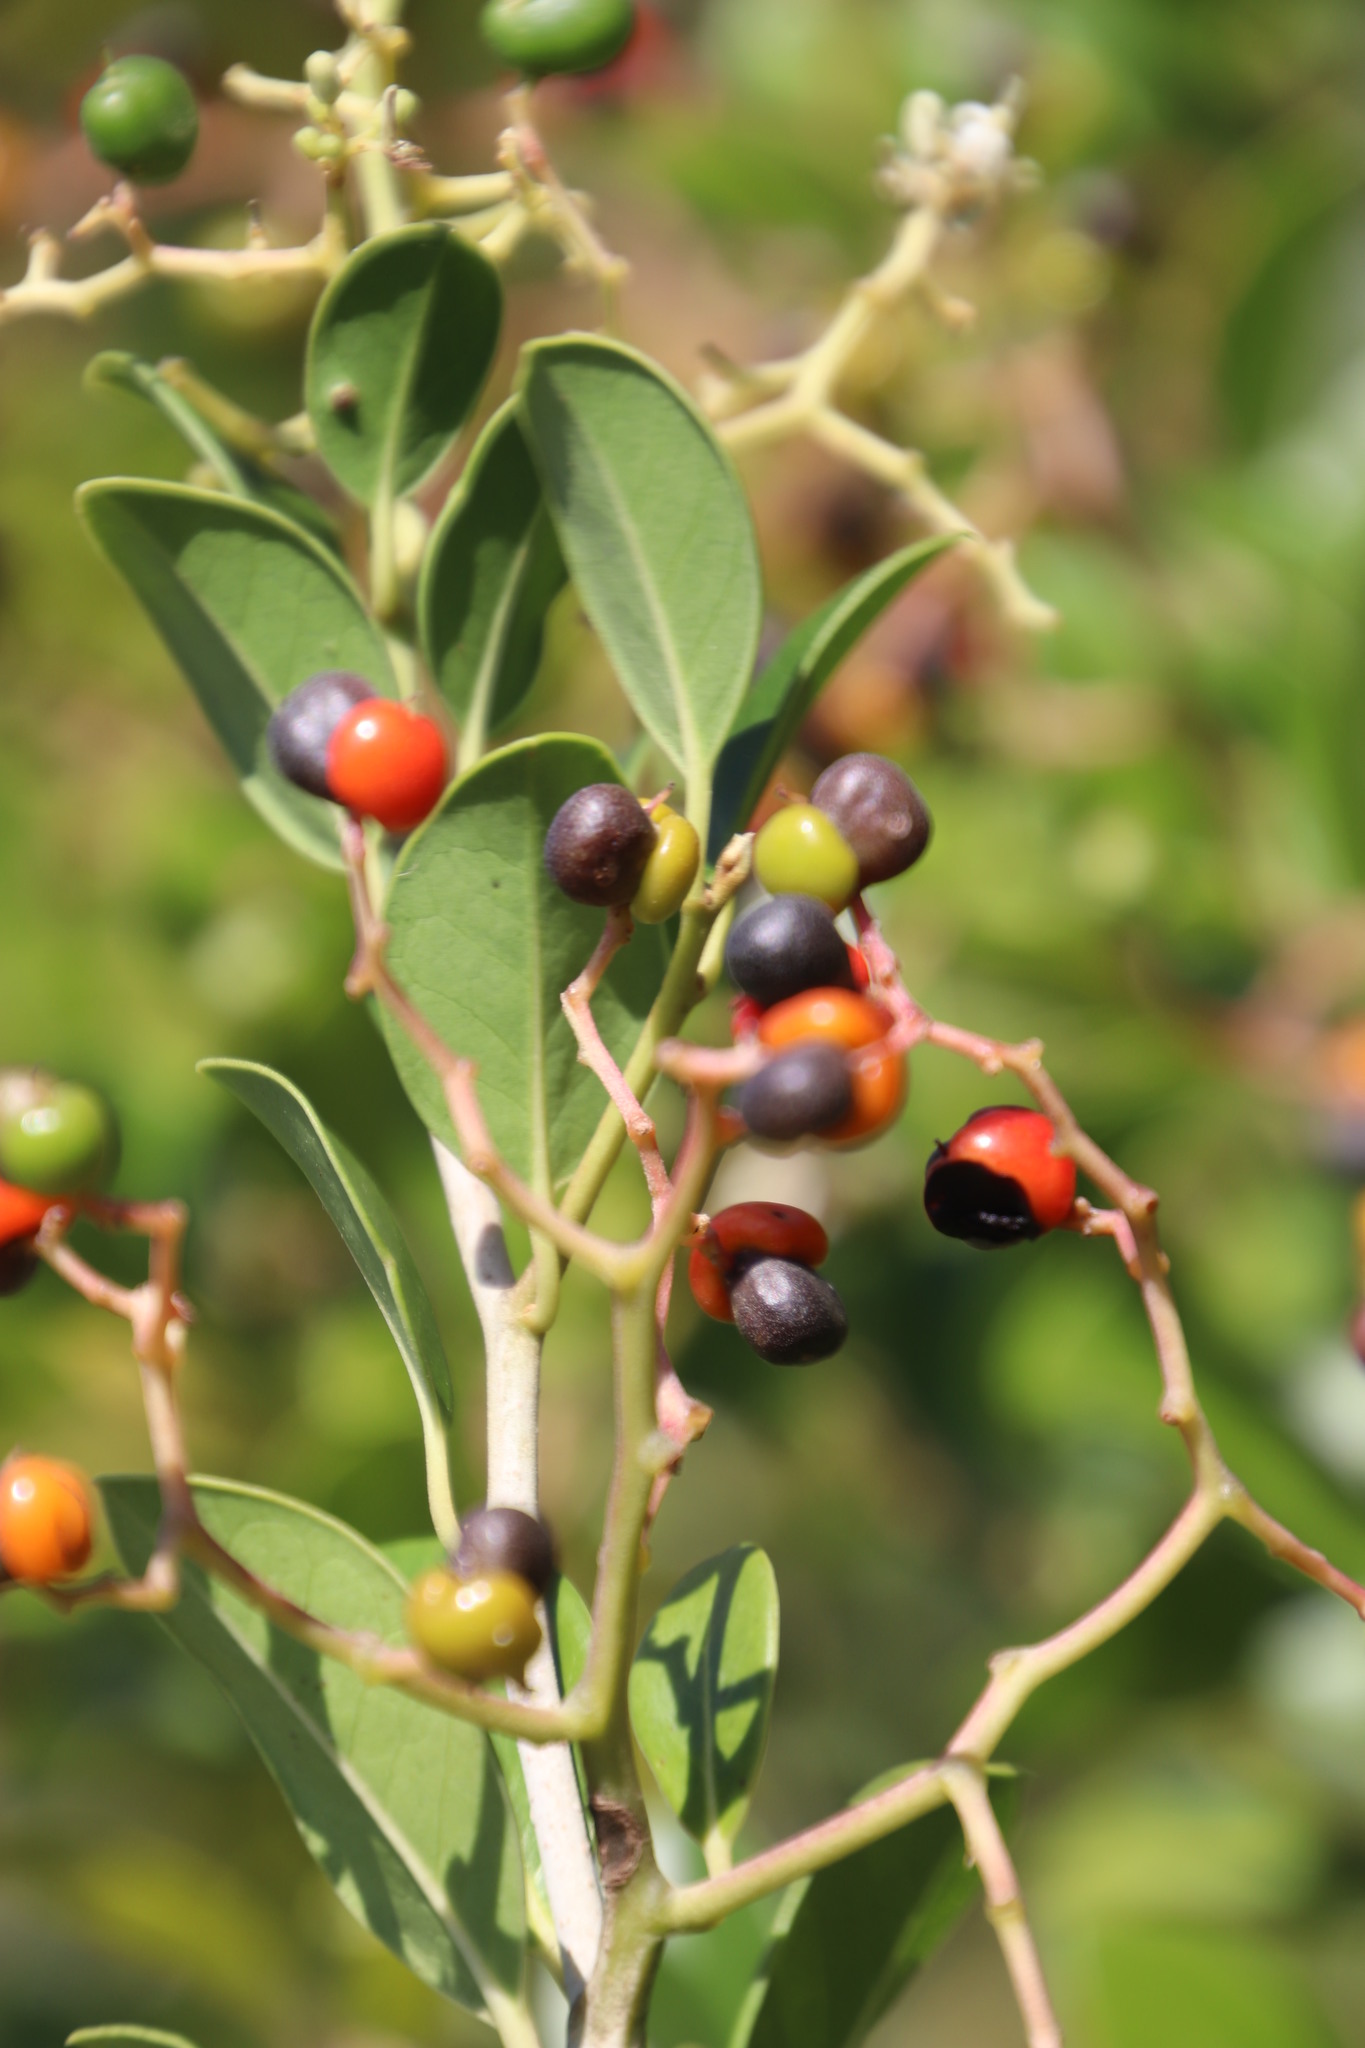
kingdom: Plantae
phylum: Tracheophyta
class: Magnoliopsida
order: Metteniusales
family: Metteniusaceae
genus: Apodytes
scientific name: Apodytes abbottii
